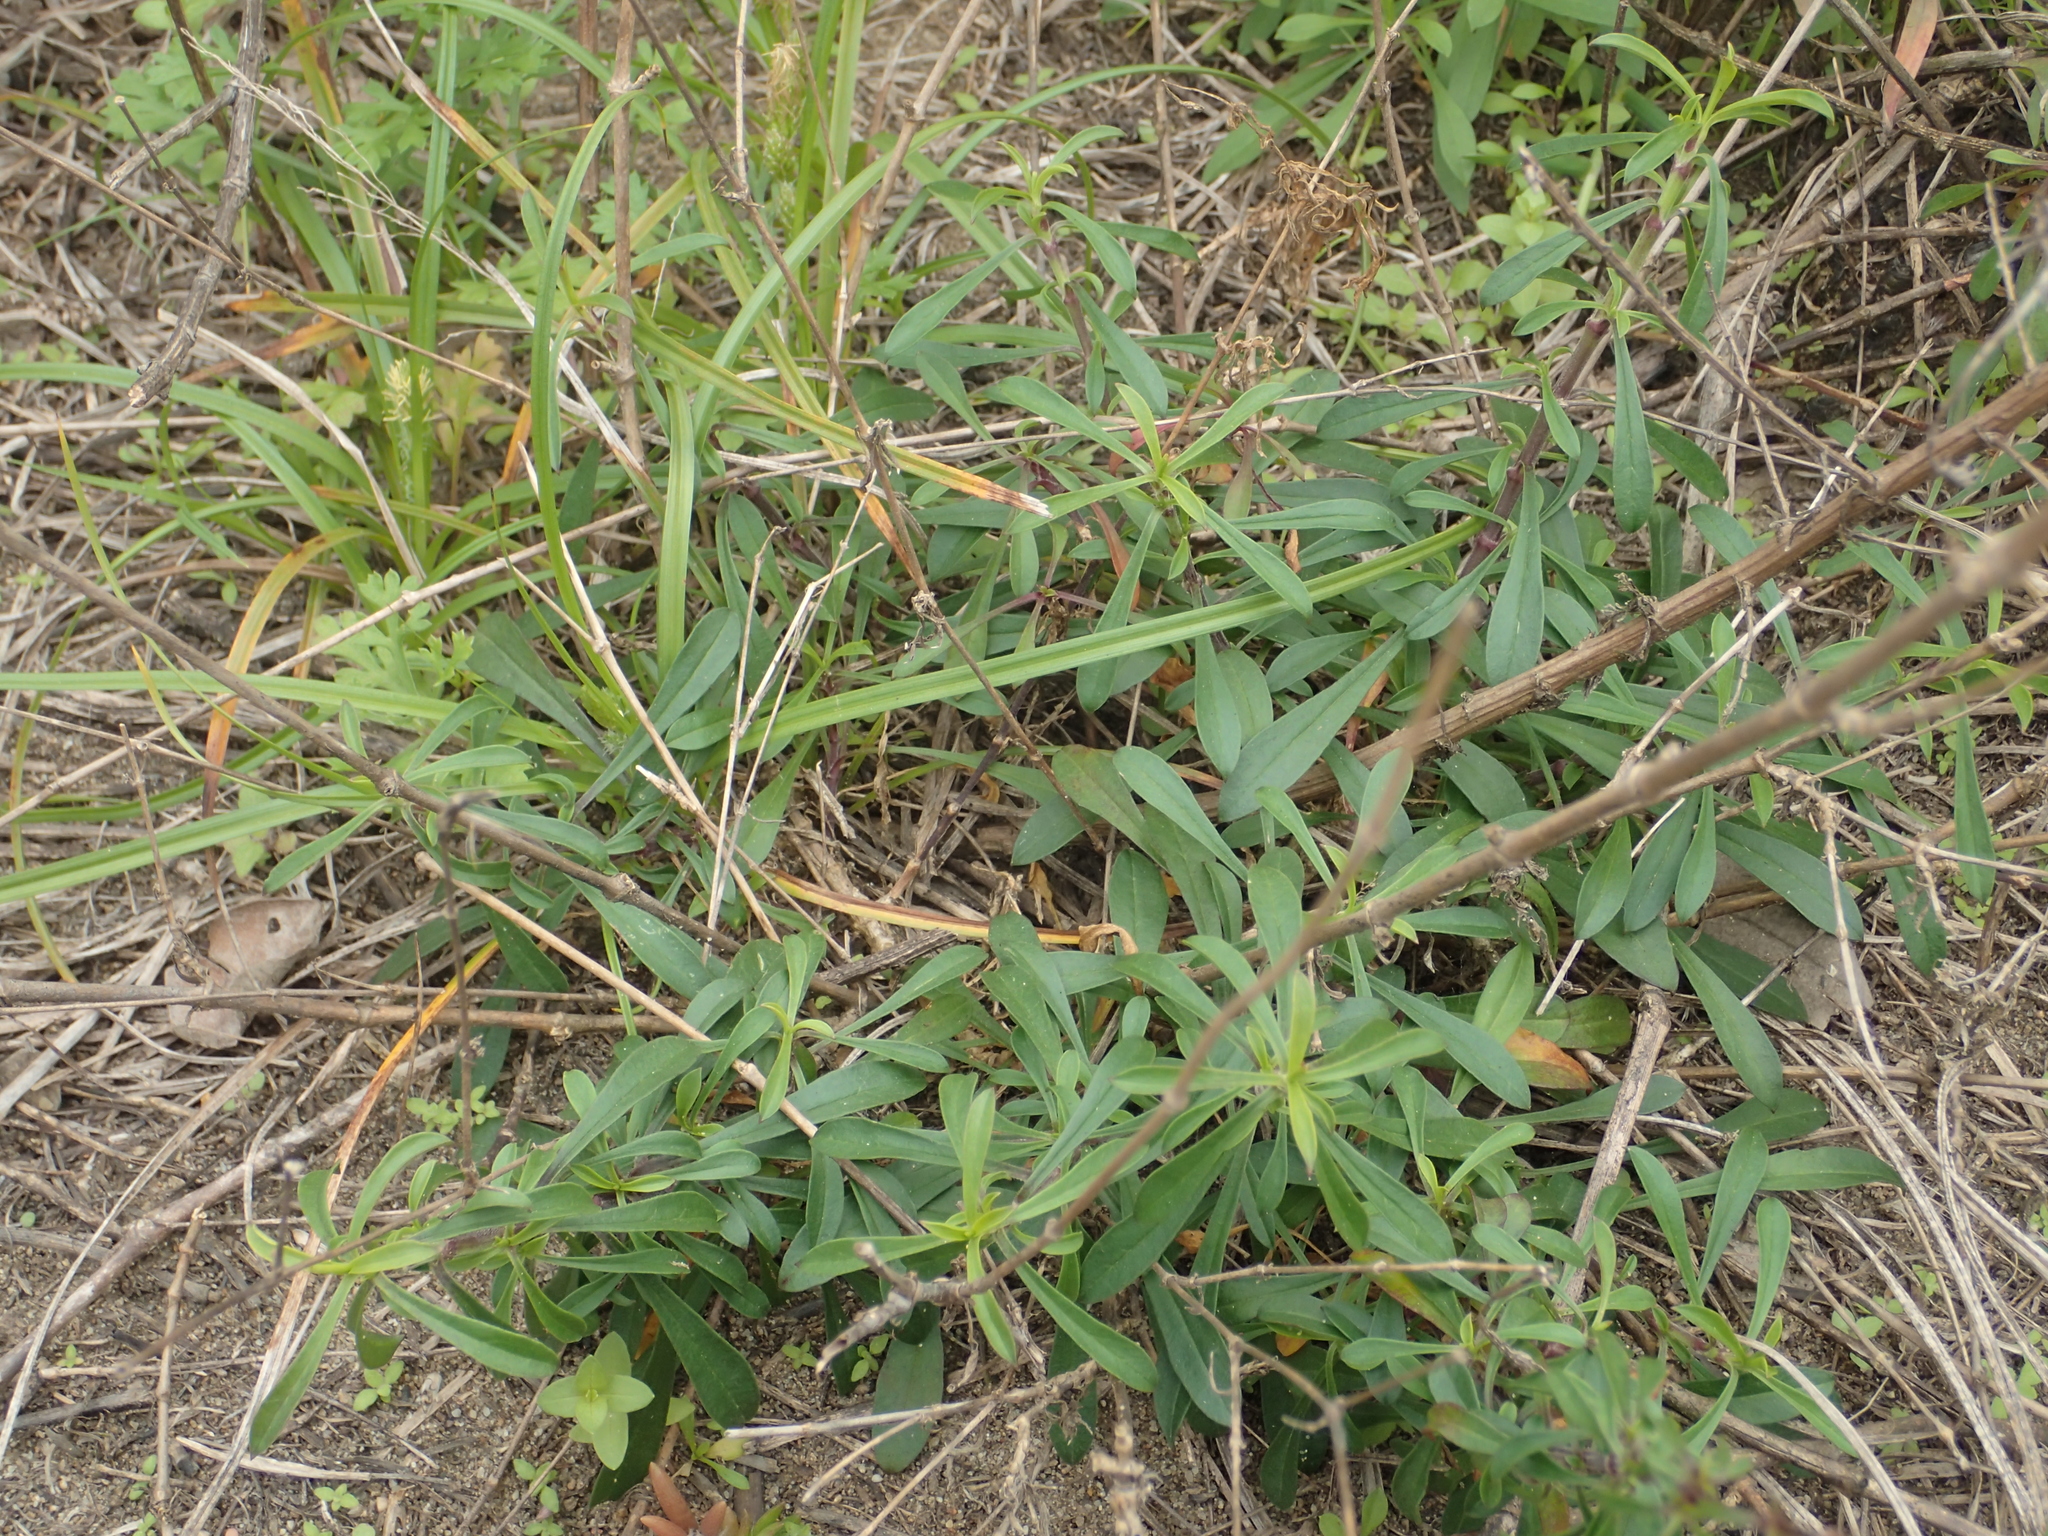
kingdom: Plantae
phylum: Tracheophyta
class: Magnoliopsida
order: Caryophyllales
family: Caryophyllaceae
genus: Silene
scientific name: Silene fissipetala
